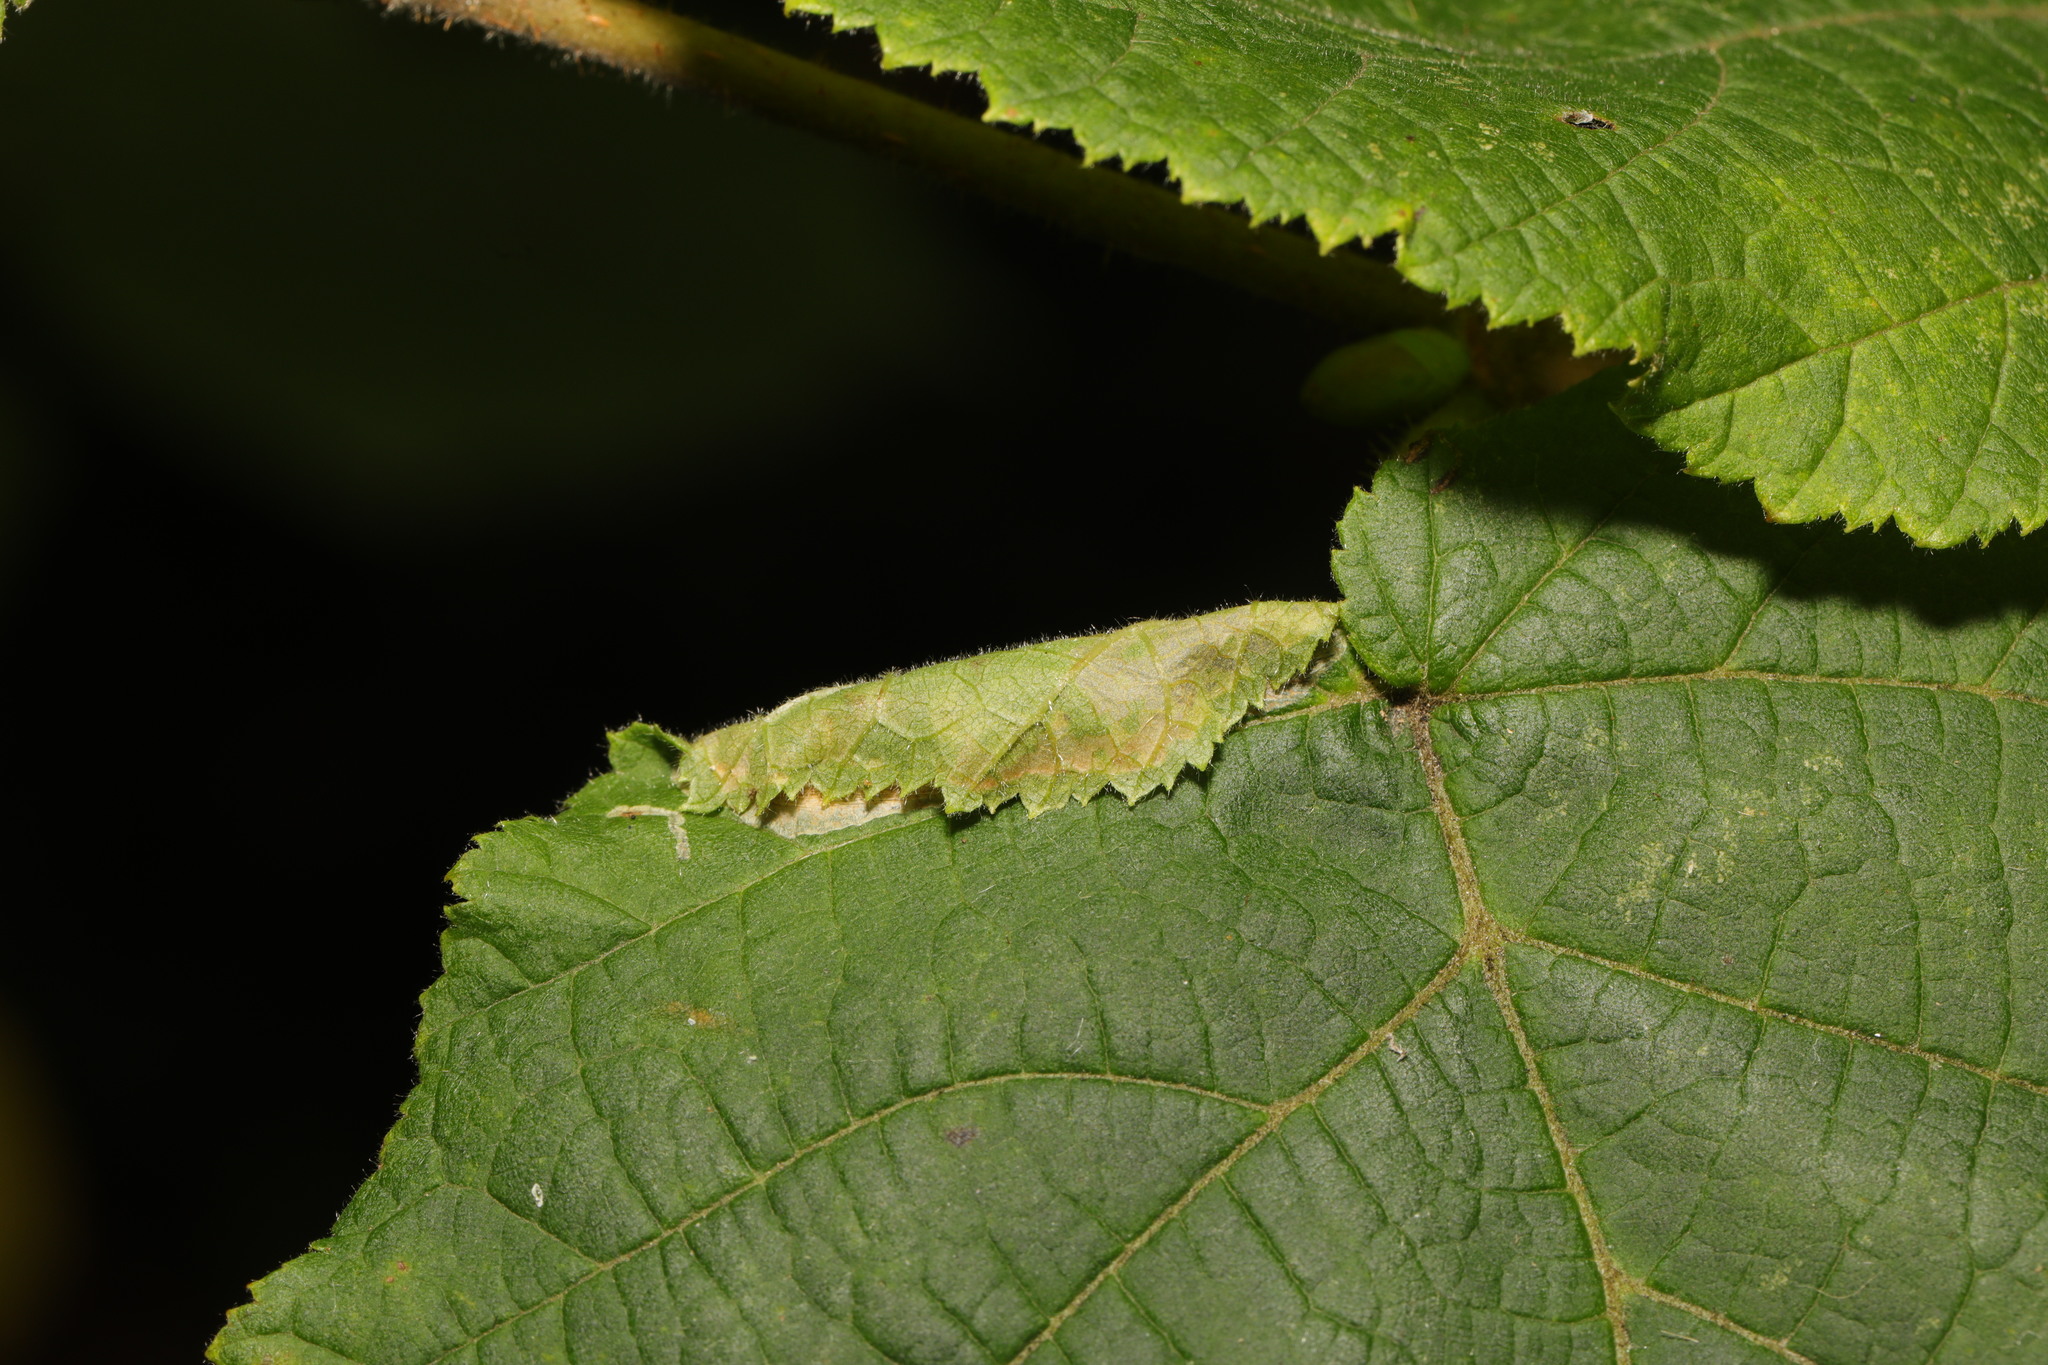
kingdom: Animalia
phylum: Arthropoda
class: Insecta
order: Lepidoptera
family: Gracillariidae
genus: Parornix
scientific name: Parornix devoniella
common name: Hazel slender
